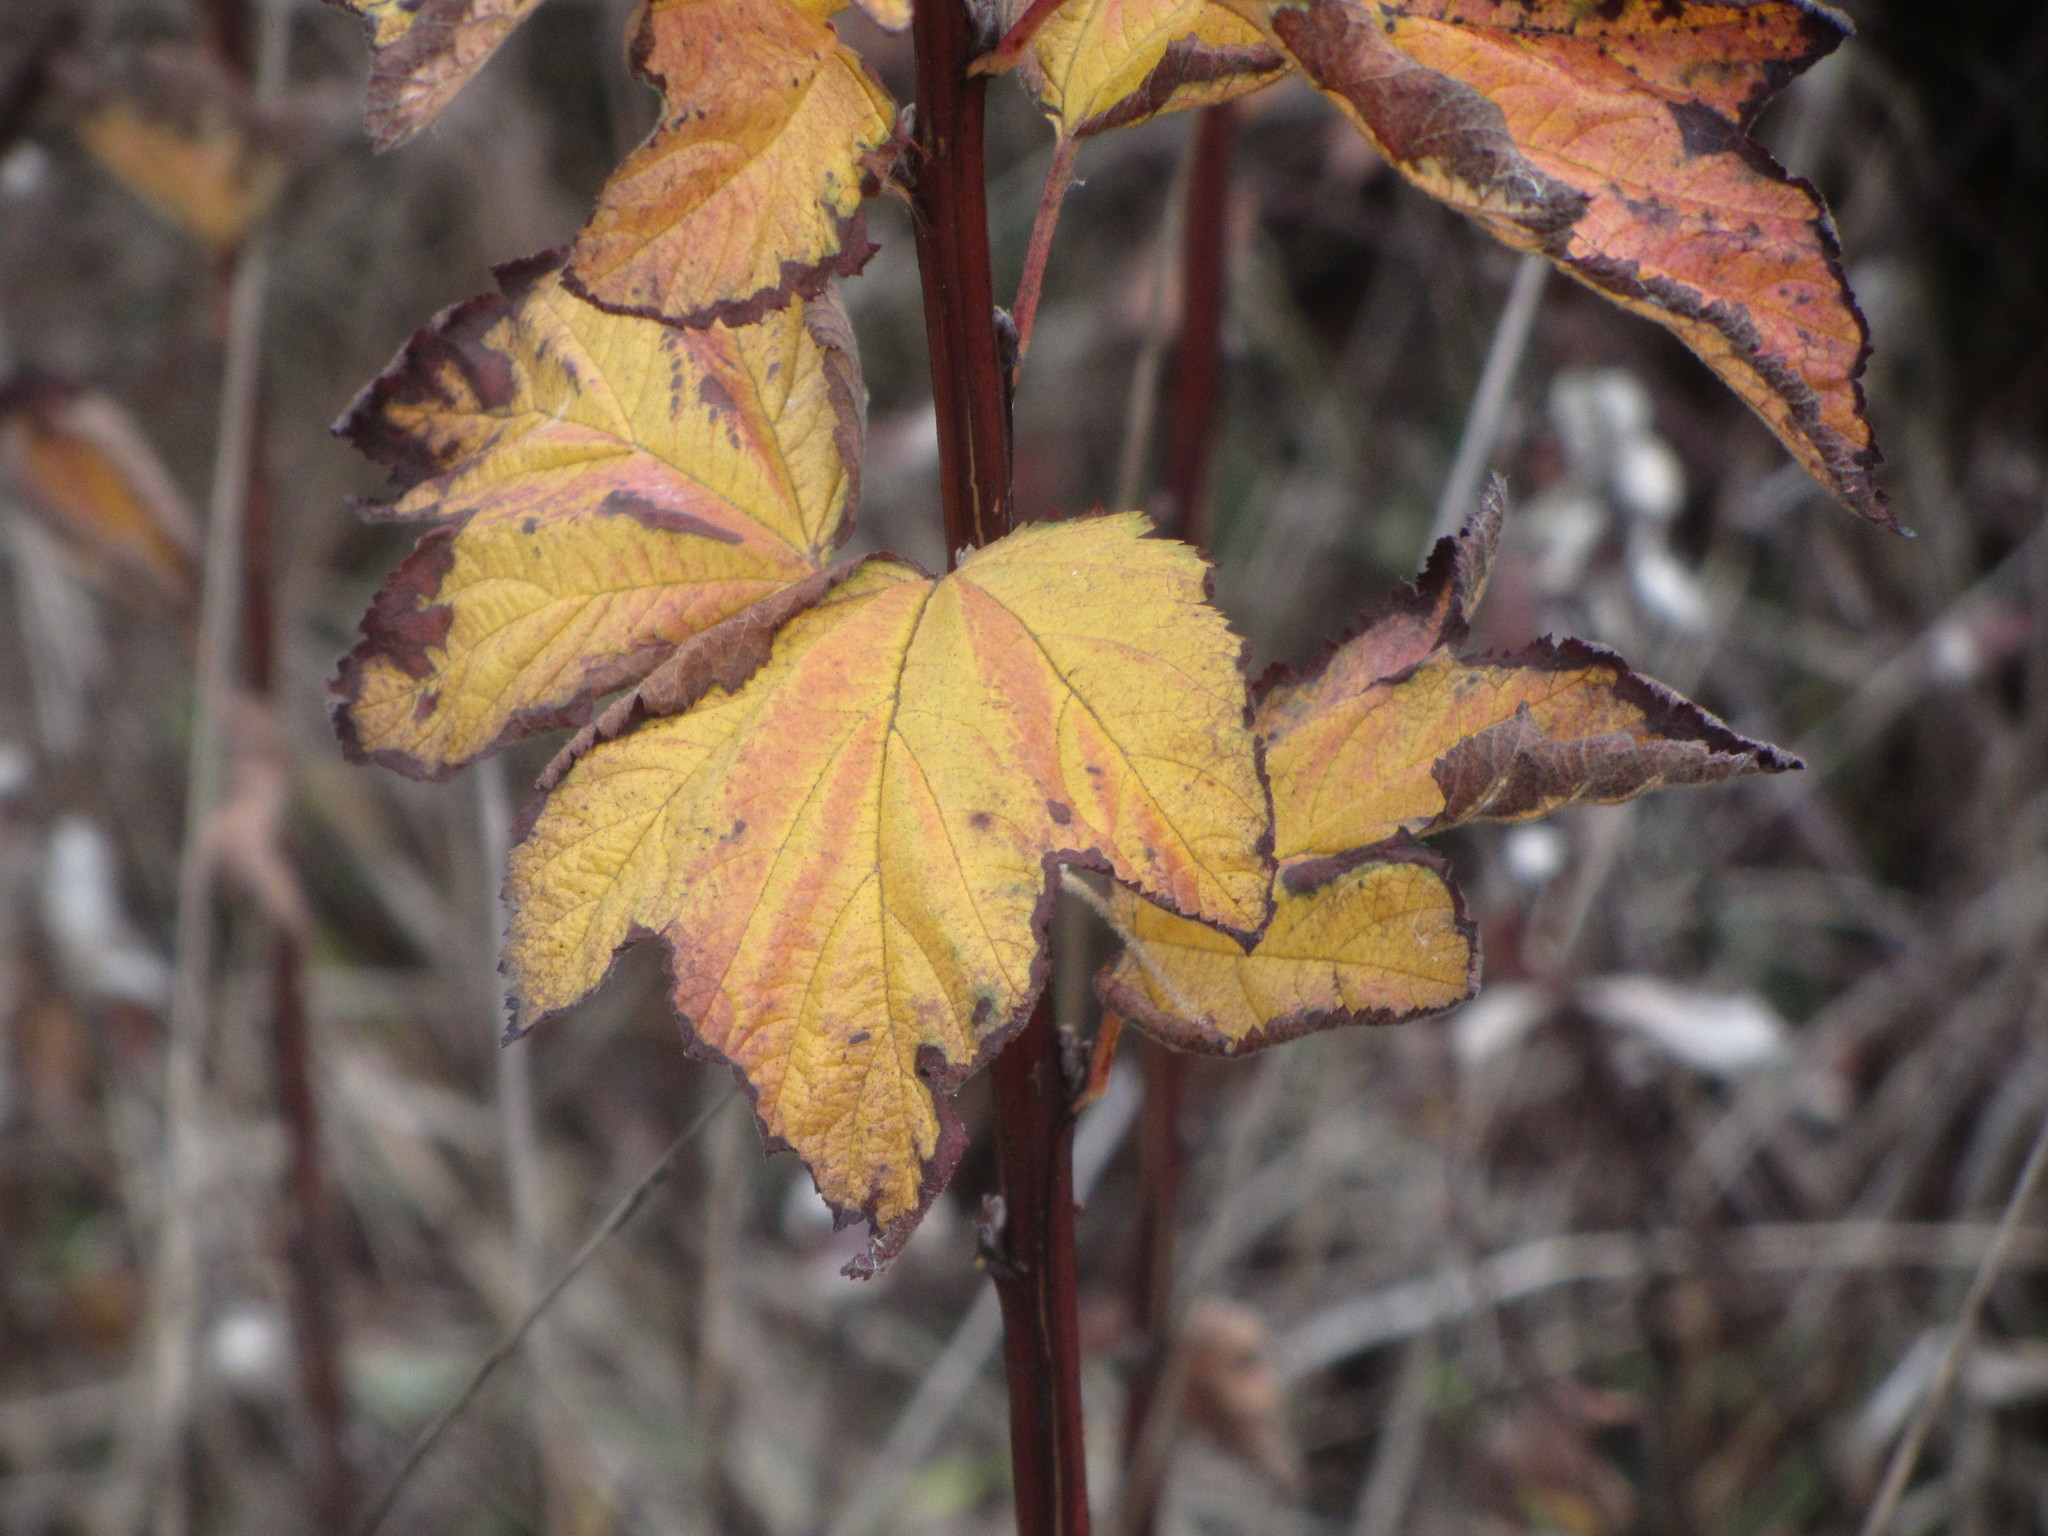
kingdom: Plantae
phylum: Tracheophyta
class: Magnoliopsida
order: Rosales
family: Rosaceae
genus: Physocarpus
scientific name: Physocarpus capitatus
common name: Pacific ninebark
